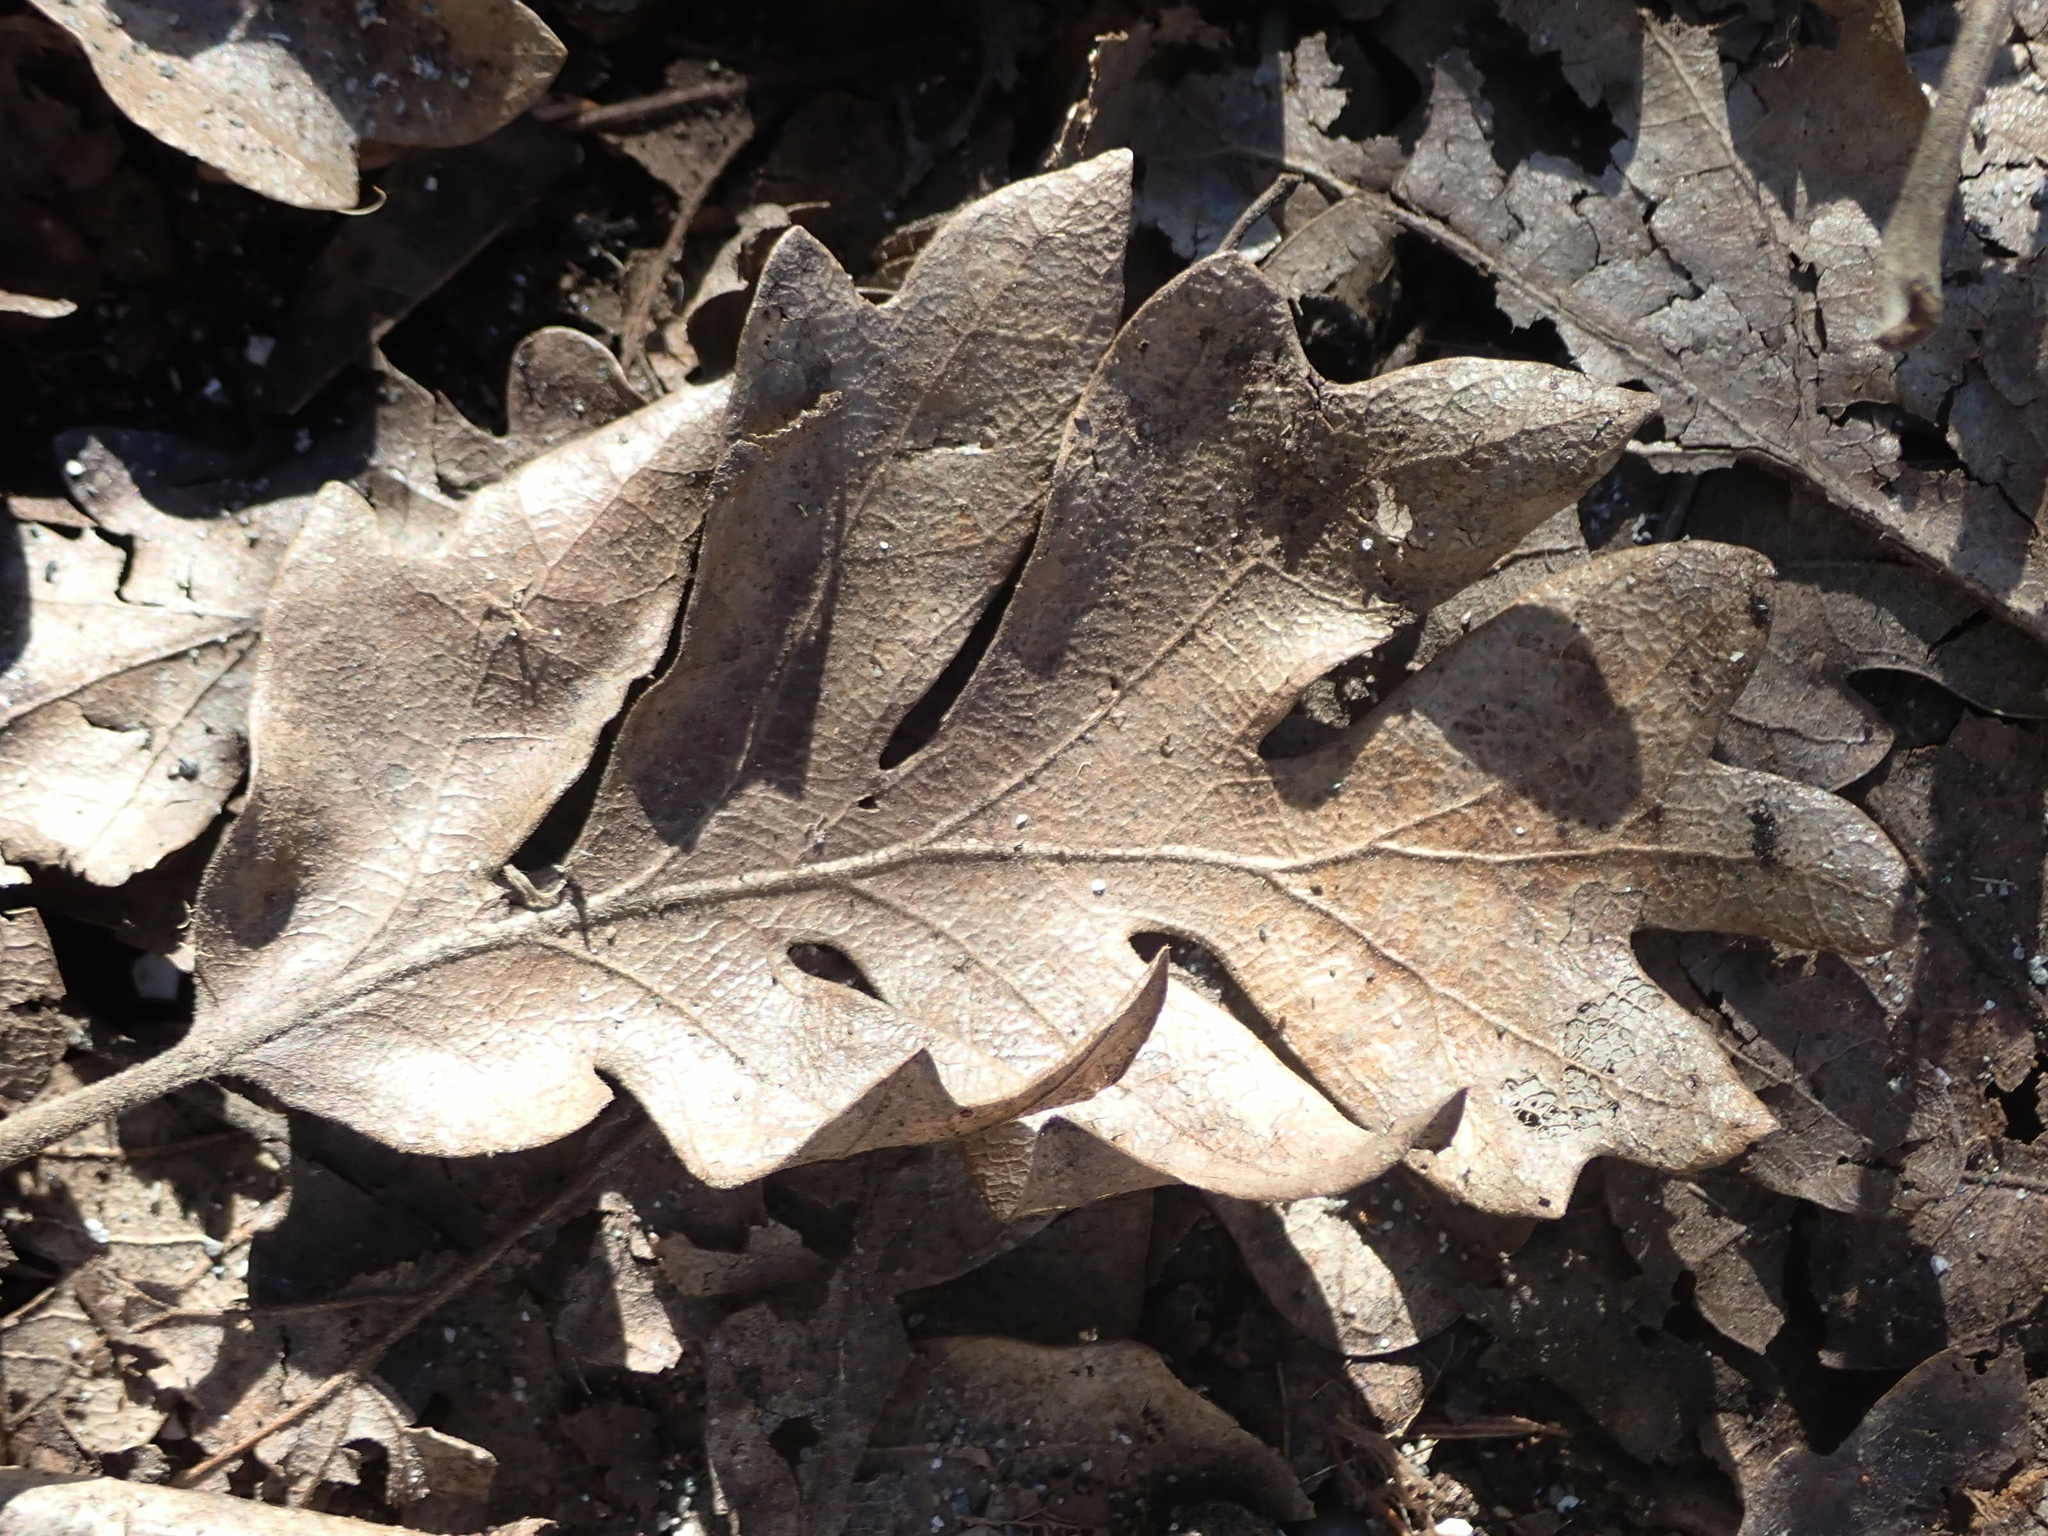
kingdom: Plantae
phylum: Tracheophyta
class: Magnoliopsida
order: Fagales
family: Fagaceae
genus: Quercus
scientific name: Quercus garryana
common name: Garry oak
